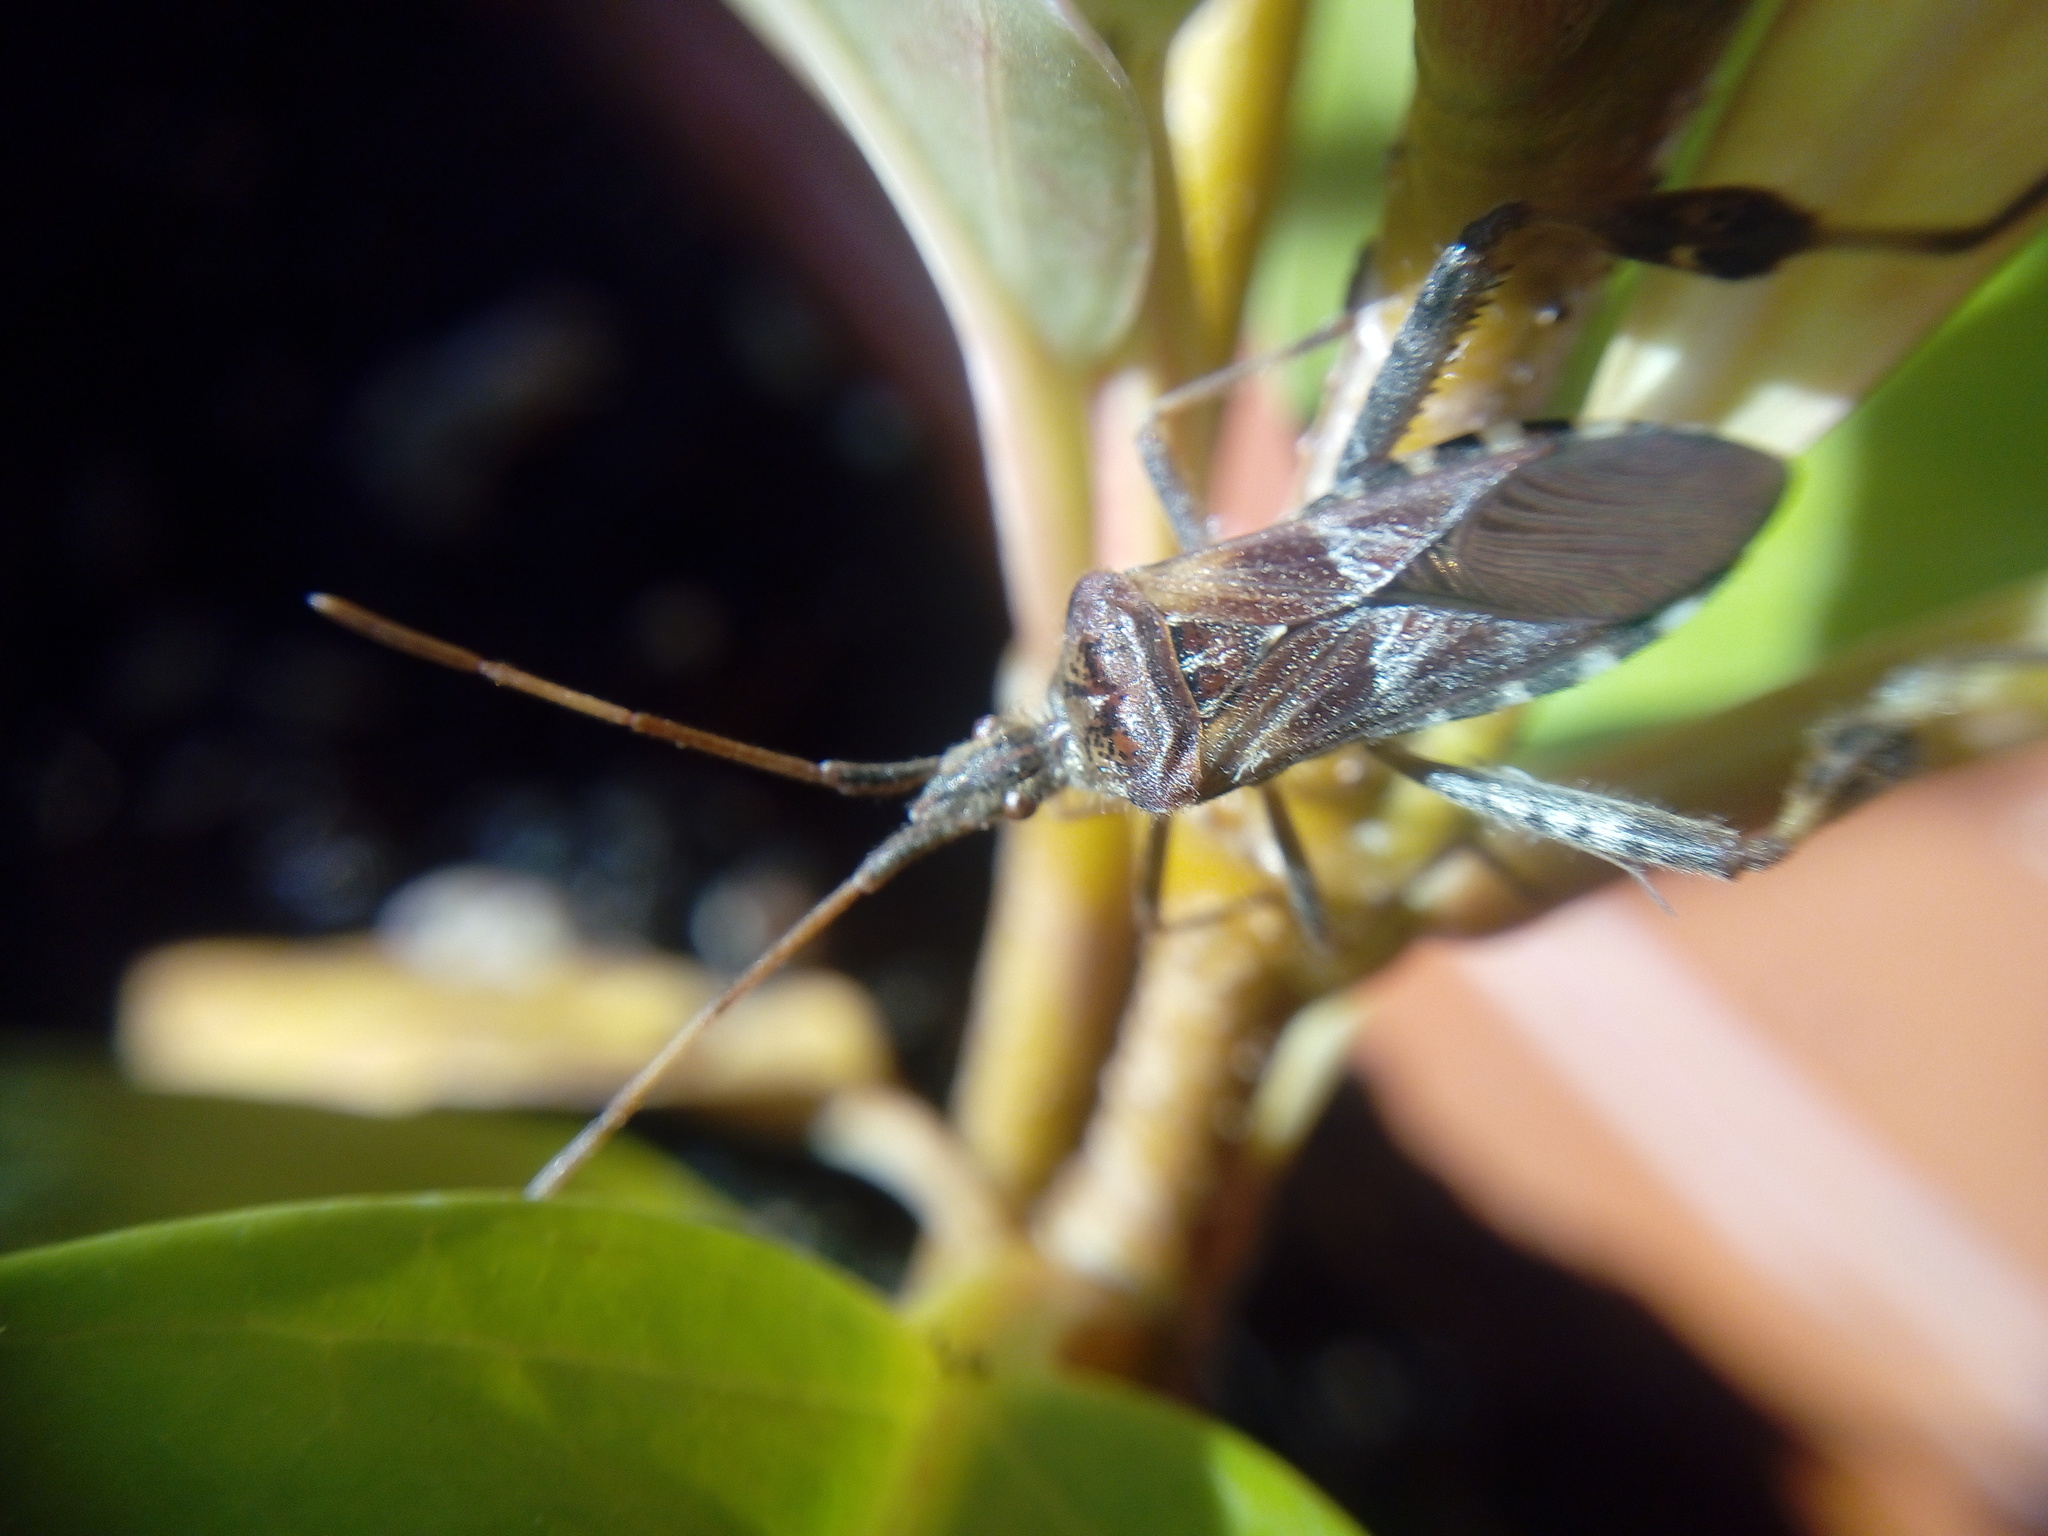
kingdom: Animalia
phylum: Arthropoda
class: Insecta
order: Hemiptera
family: Coreidae
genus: Leptoglossus
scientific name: Leptoglossus occidentalis
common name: Western conifer-seed bug
